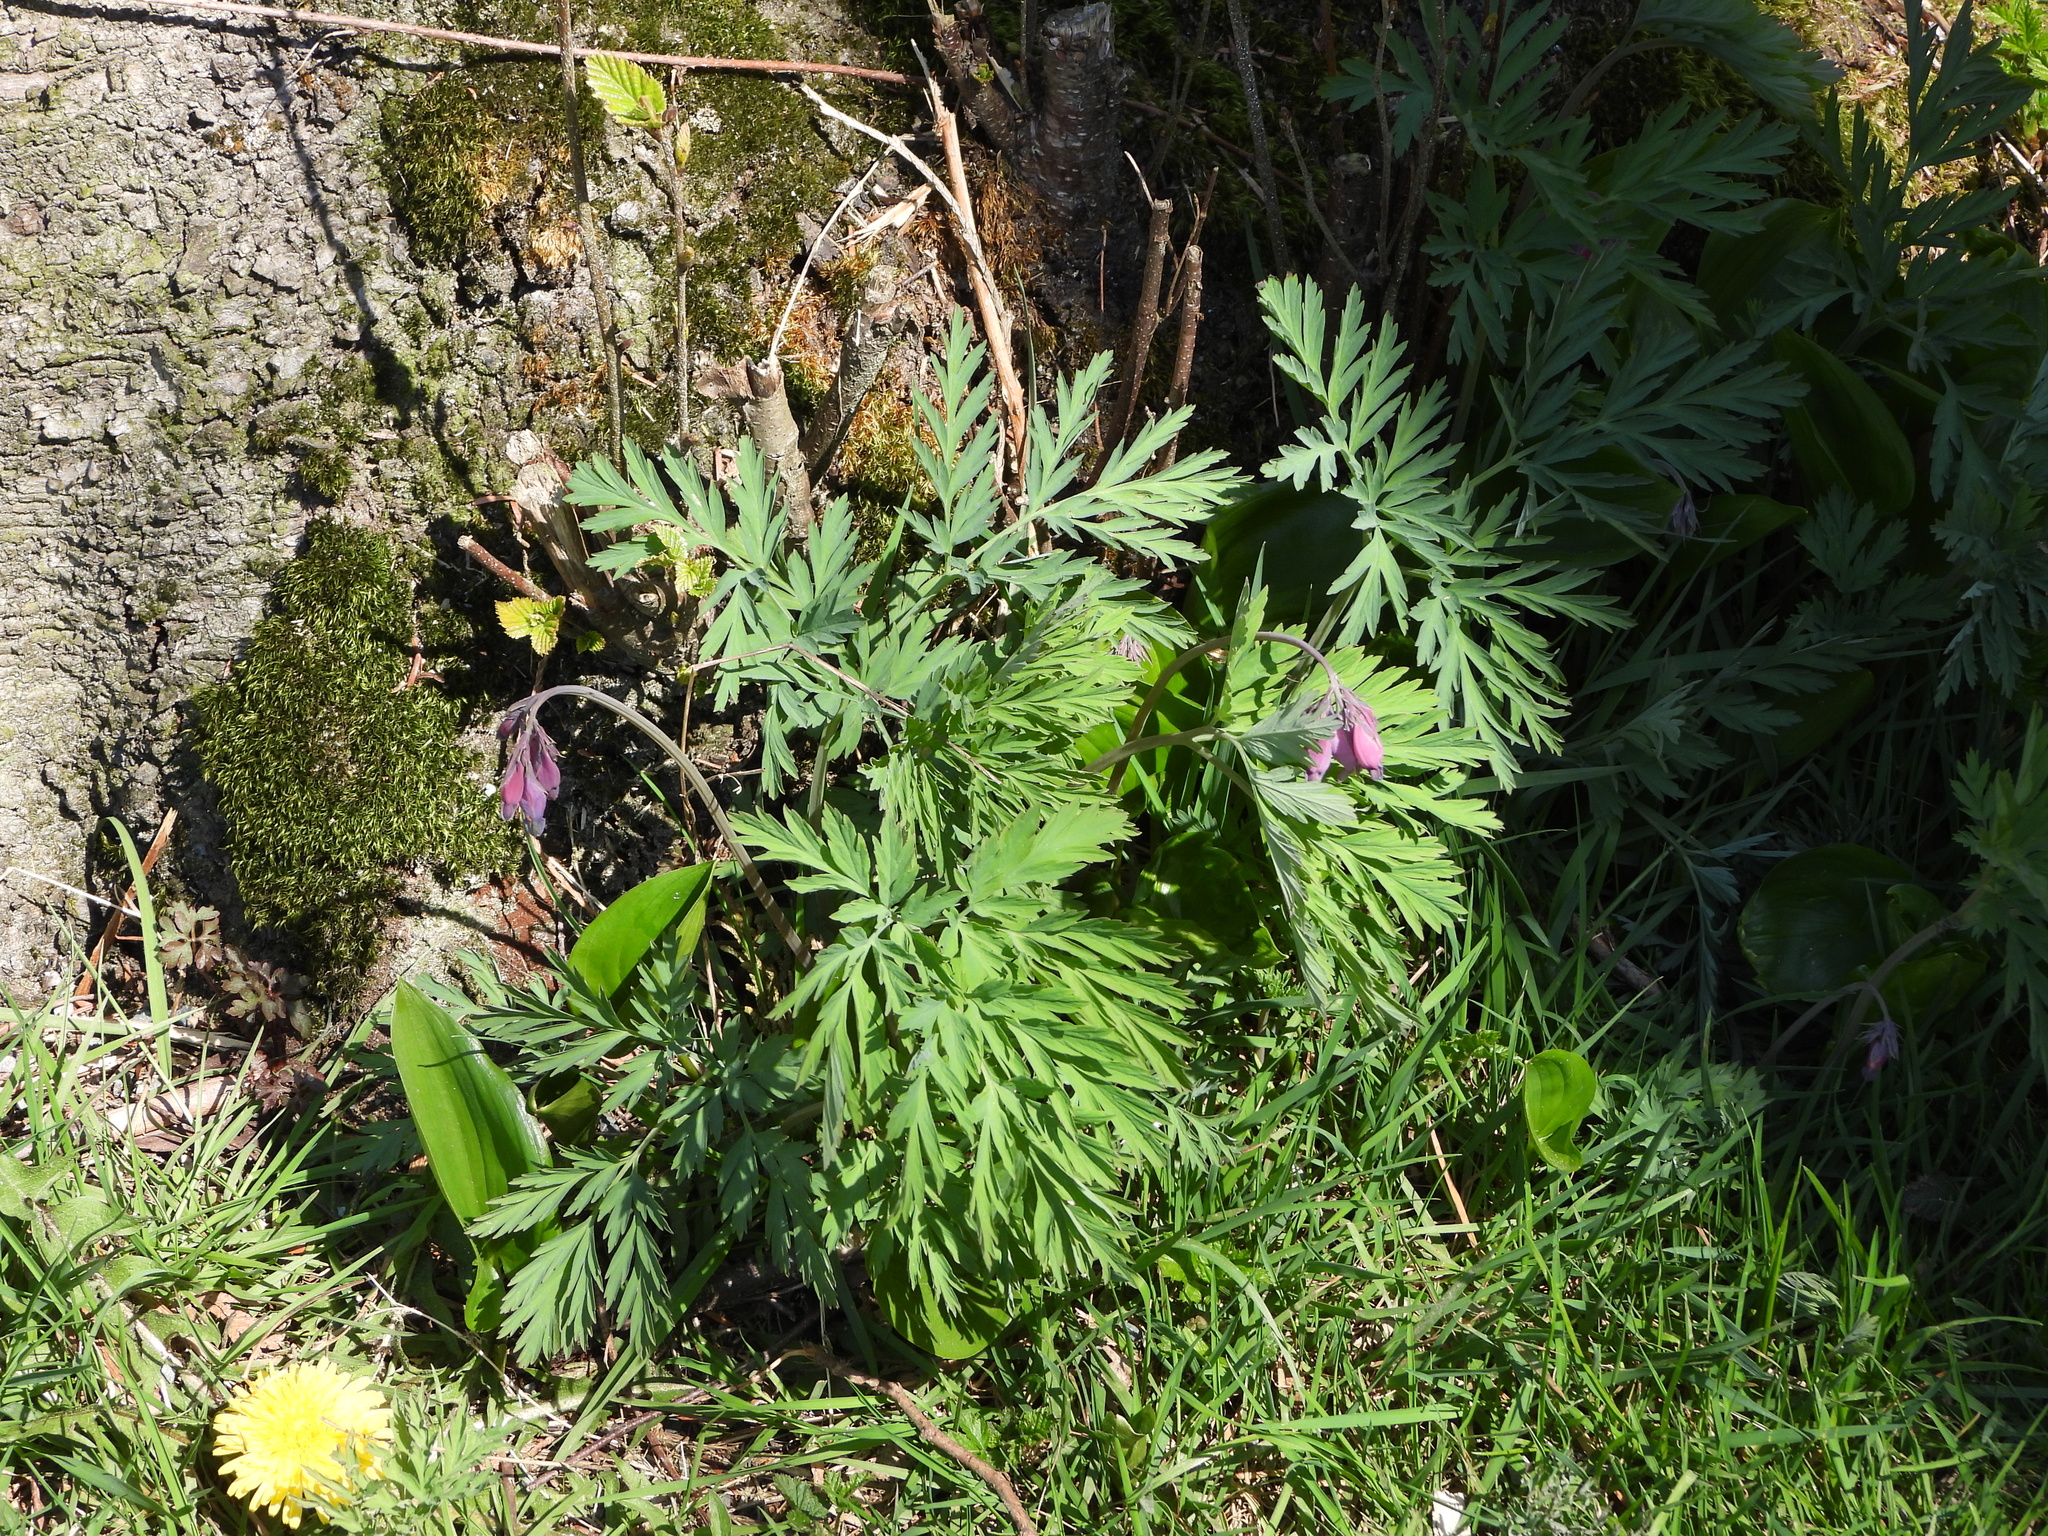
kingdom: Plantae
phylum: Tracheophyta
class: Magnoliopsida
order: Ranunculales
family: Papaveraceae
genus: Dicentra
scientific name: Dicentra formosa
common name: Bleeding-heart
